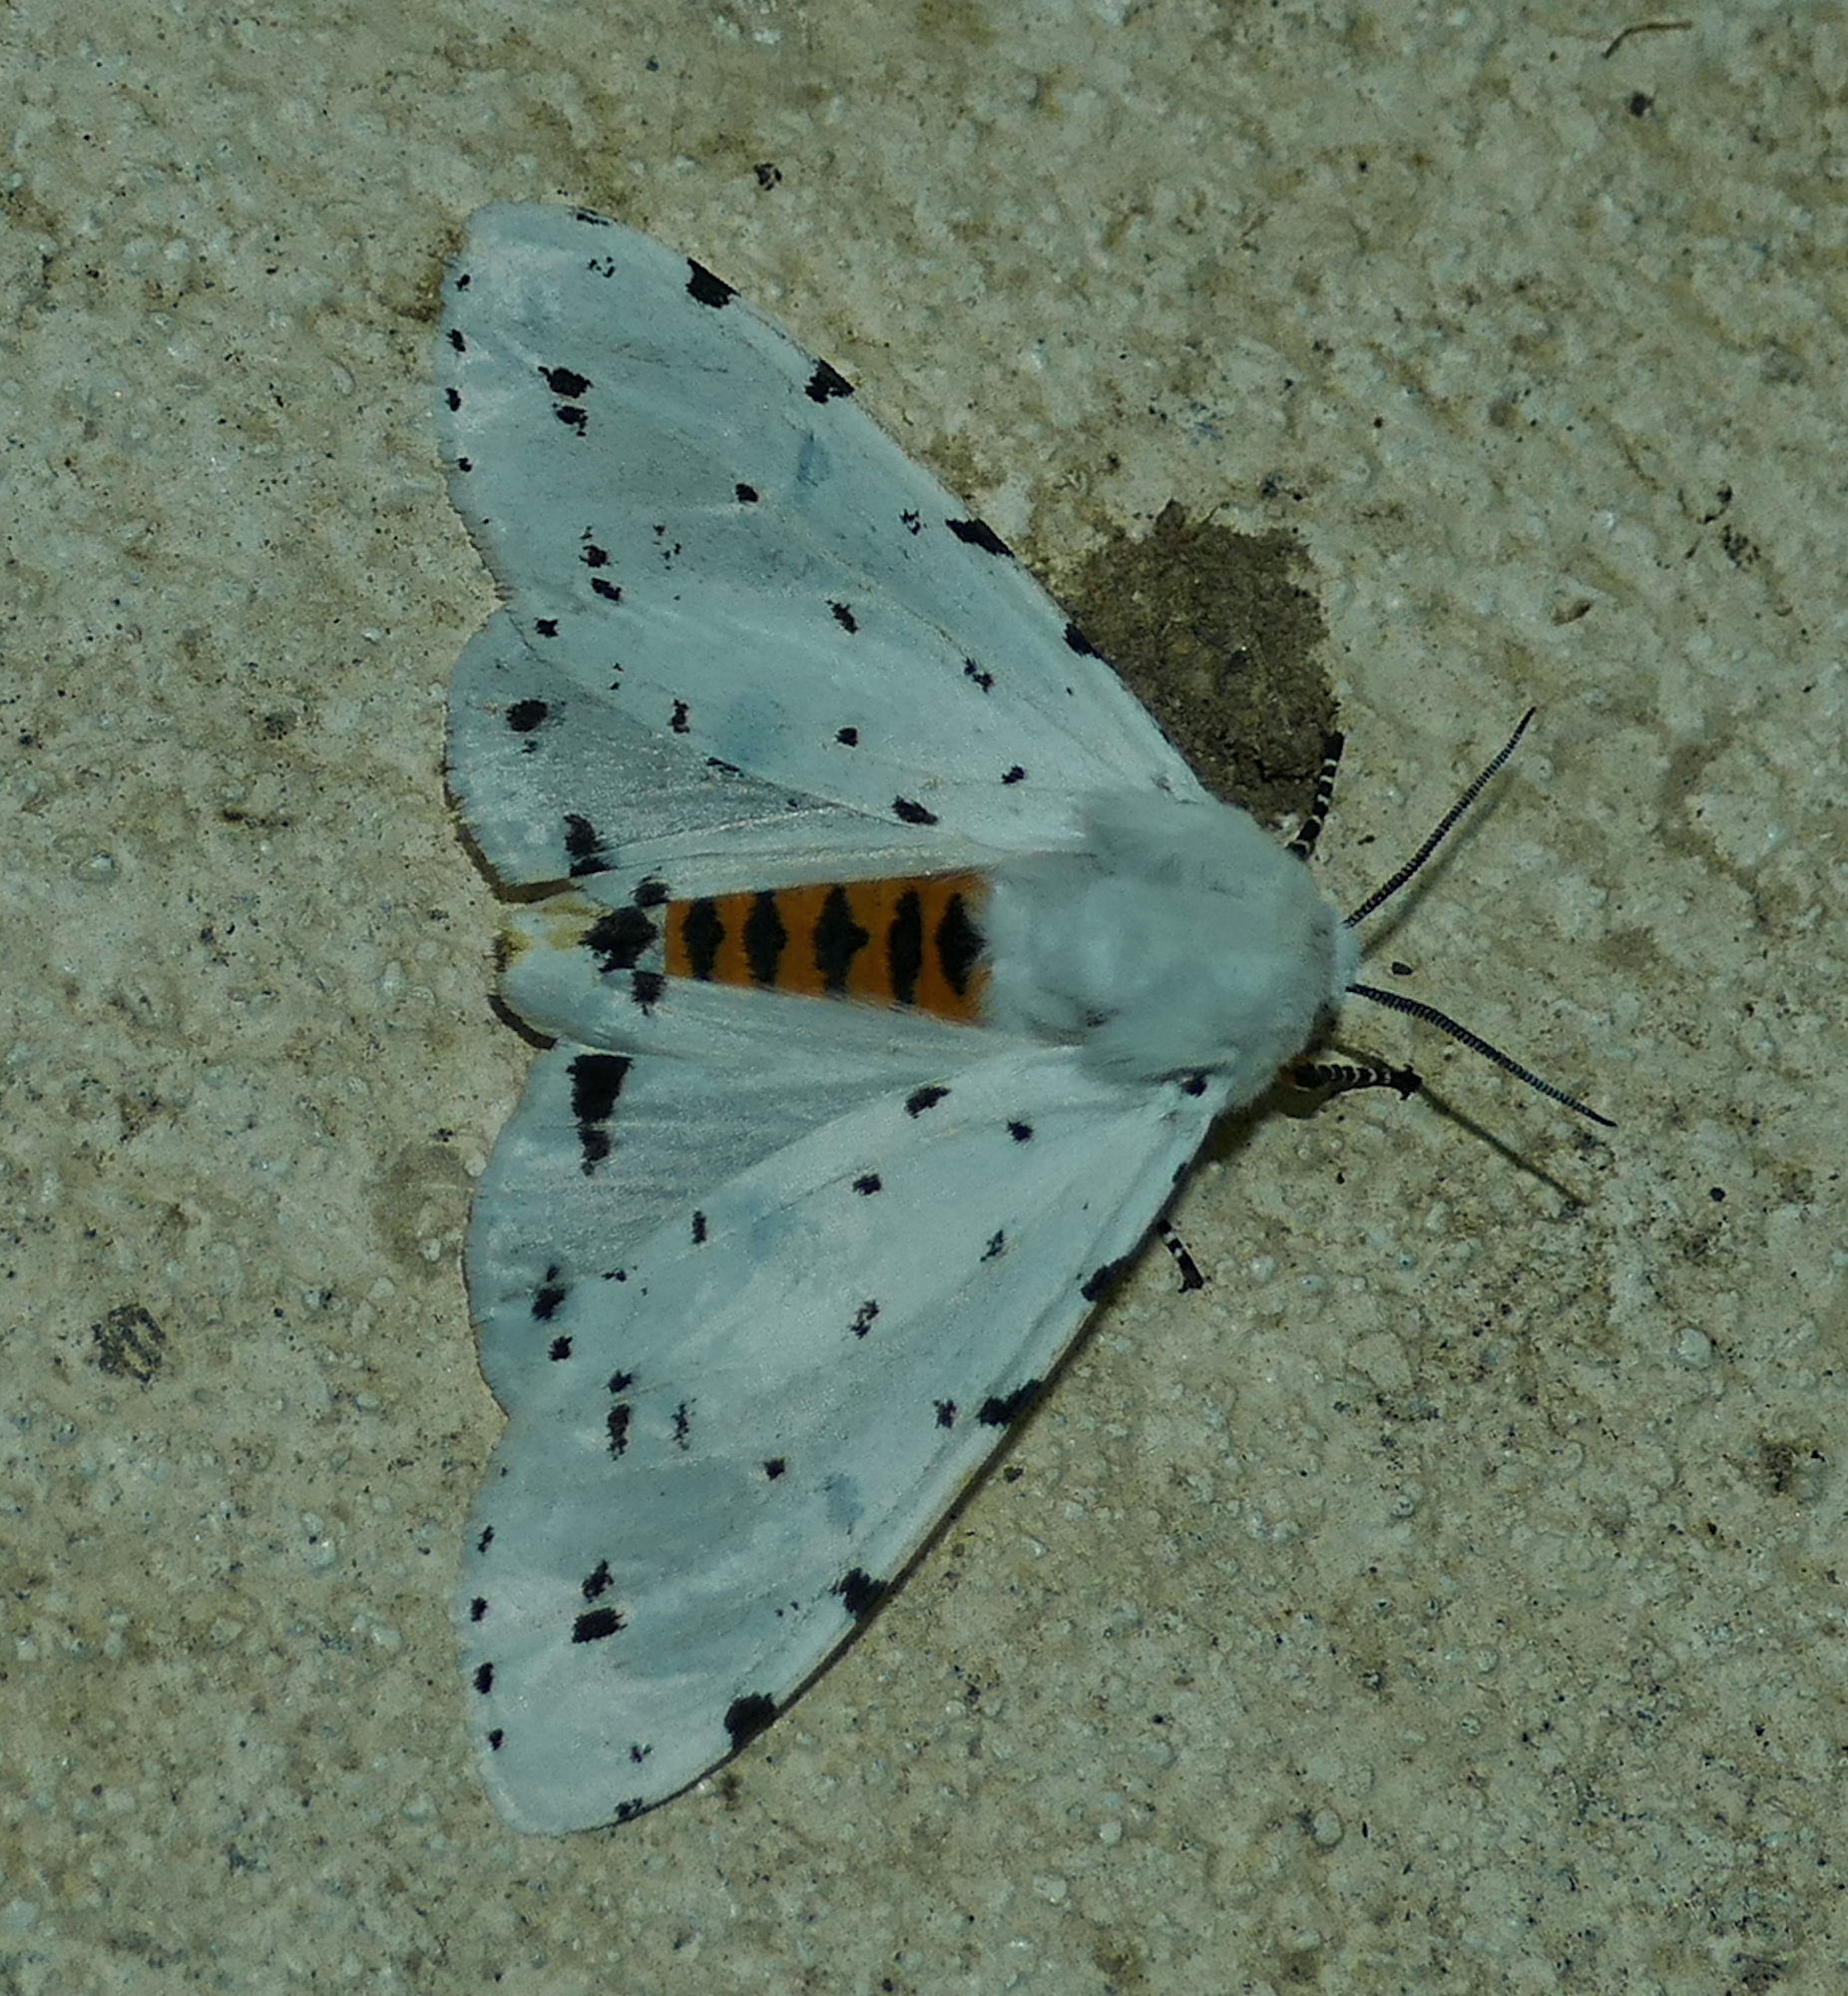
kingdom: Animalia
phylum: Arthropoda
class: Insecta
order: Lepidoptera
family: Erebidae
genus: Estigmene
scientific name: Estigmene acrea
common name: Salt marsh moth
